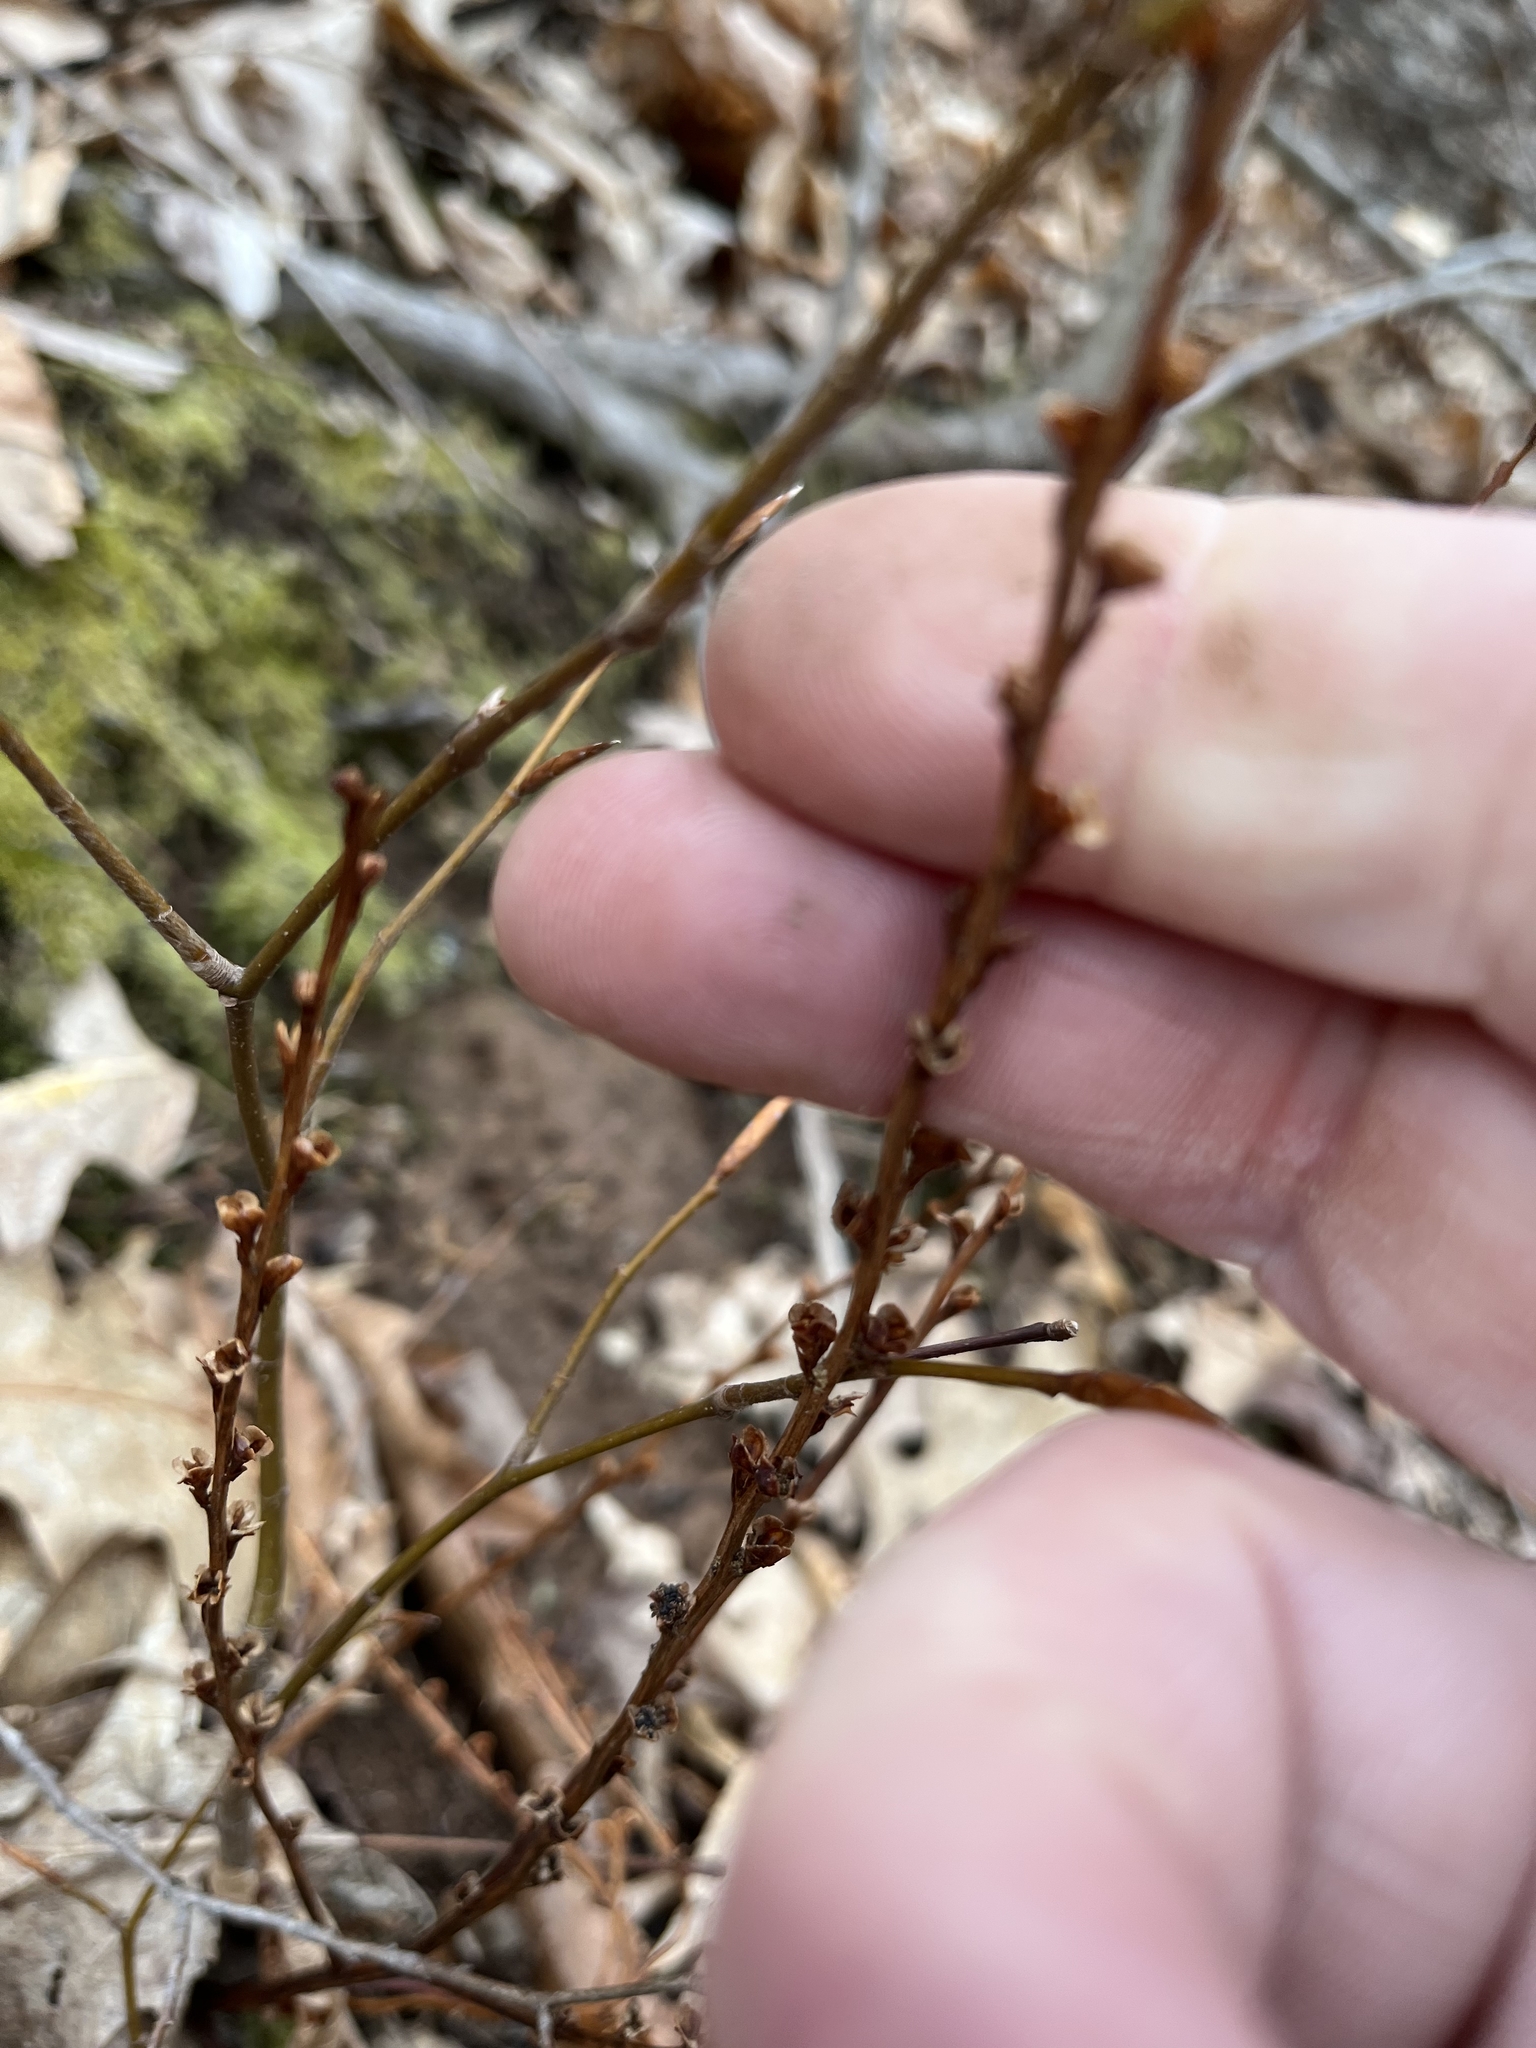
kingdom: Plantae
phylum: Tracheophyta
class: Magnoliopsida
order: Lamiales
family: Orobanchaceae
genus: Epifagus
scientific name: Epifagus virginiana
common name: Beechdrops
